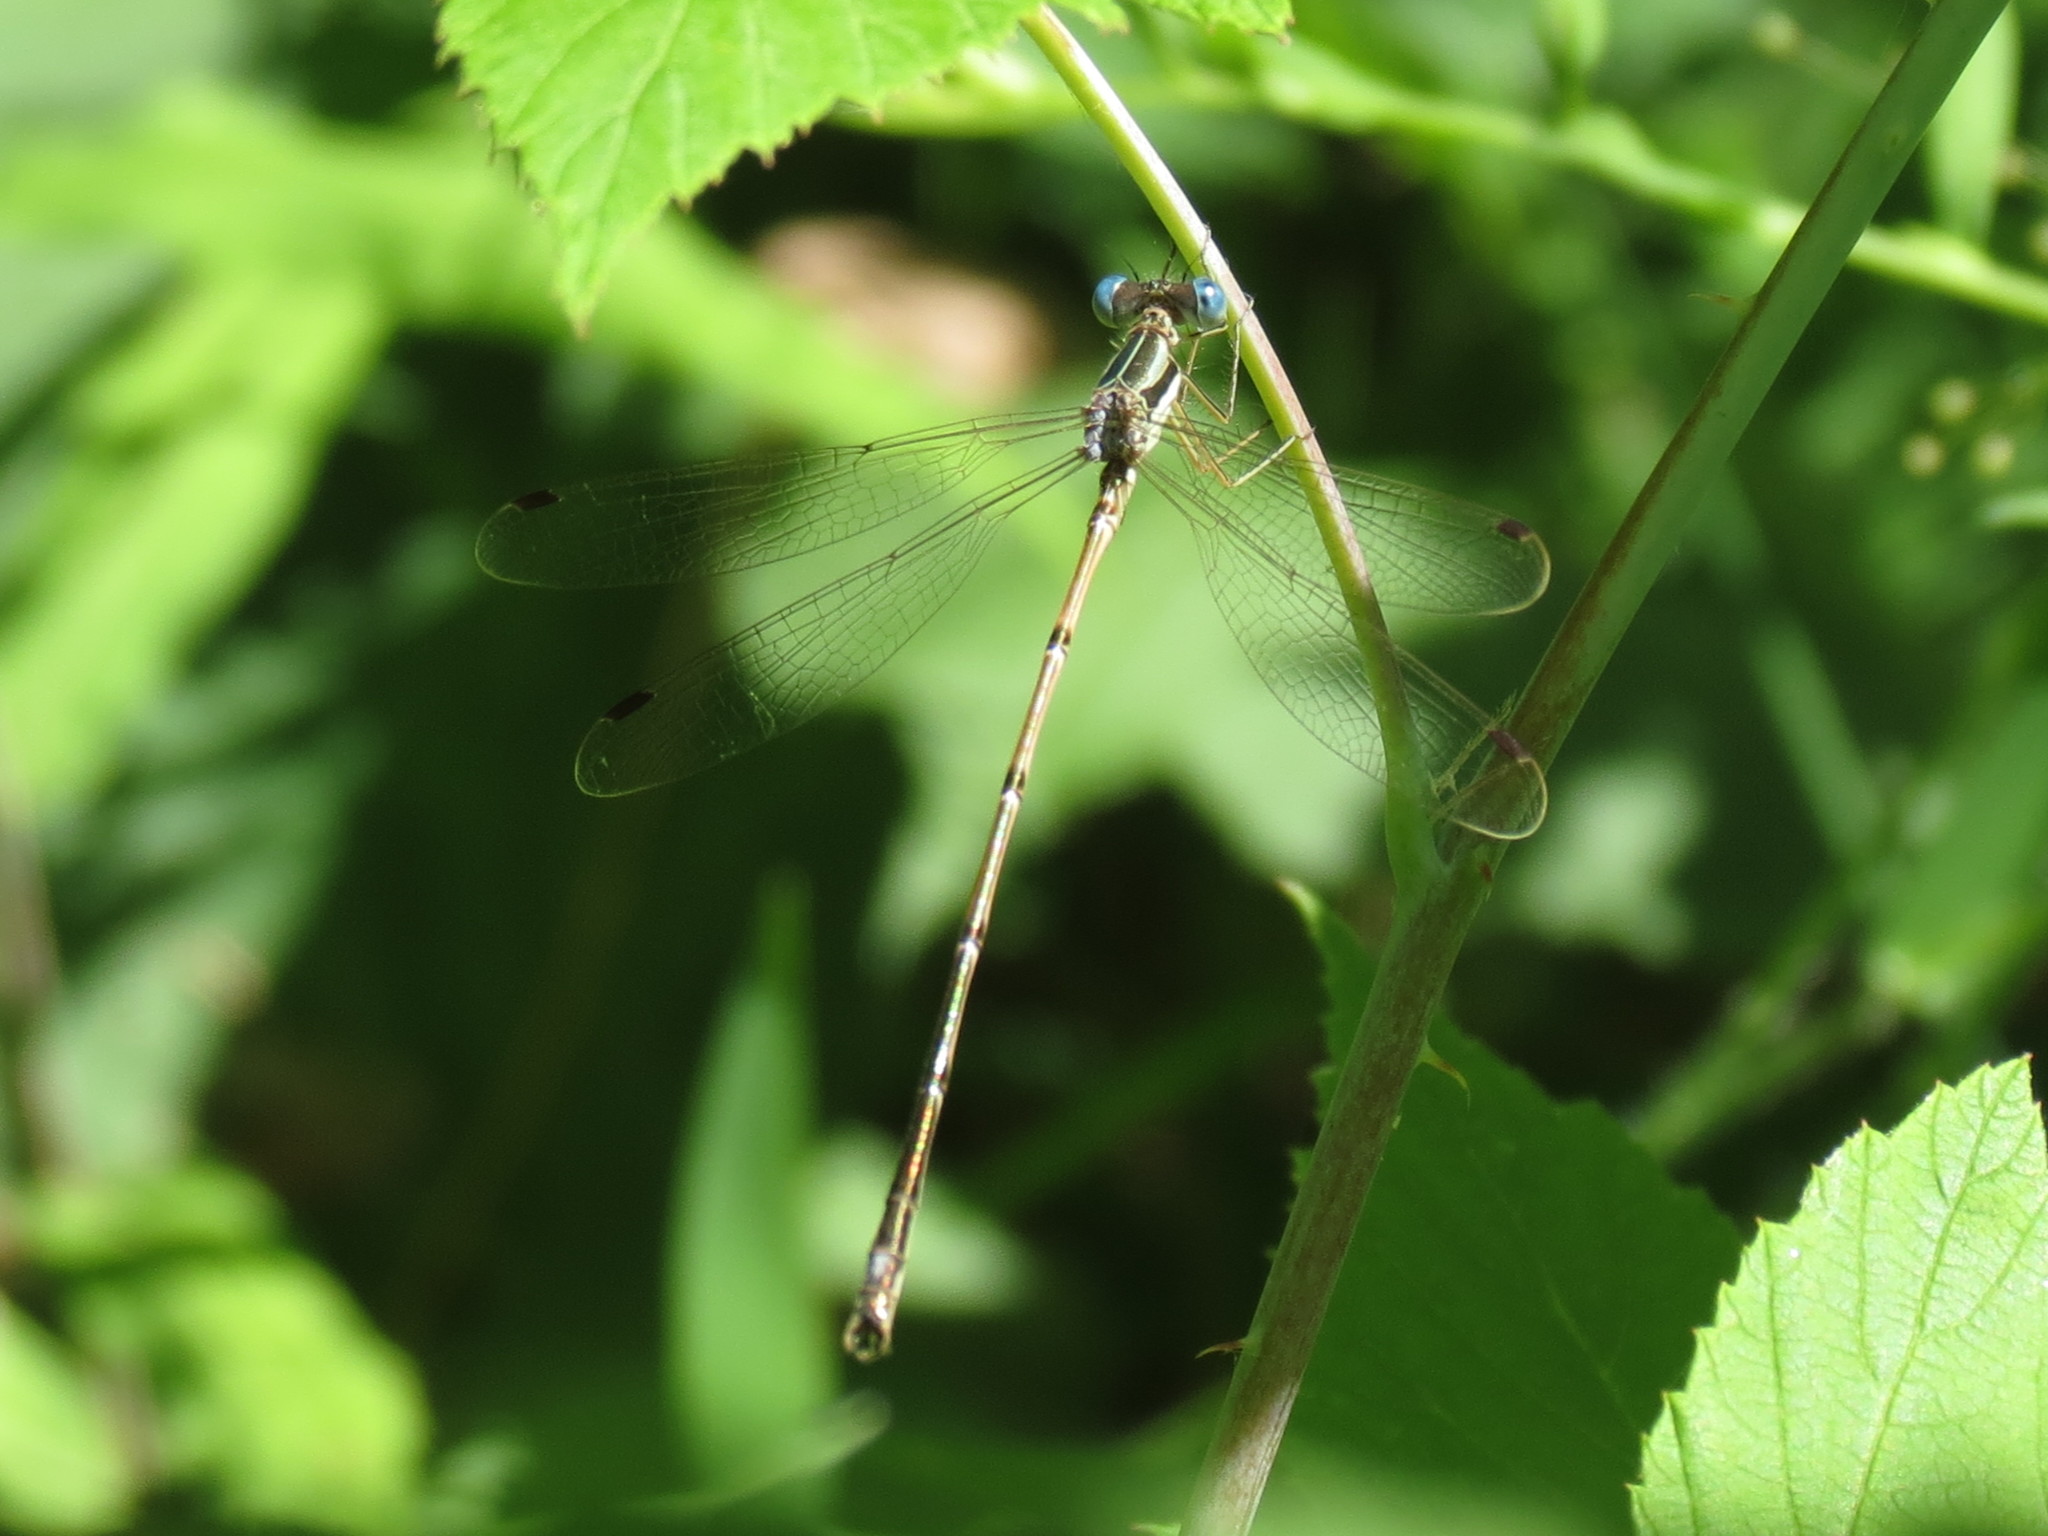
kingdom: Animalia
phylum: Arthropoda
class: Insecta
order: Odonata
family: Lestidae
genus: Lestes
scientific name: Lestes rectangularis
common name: Slender spreadwing
